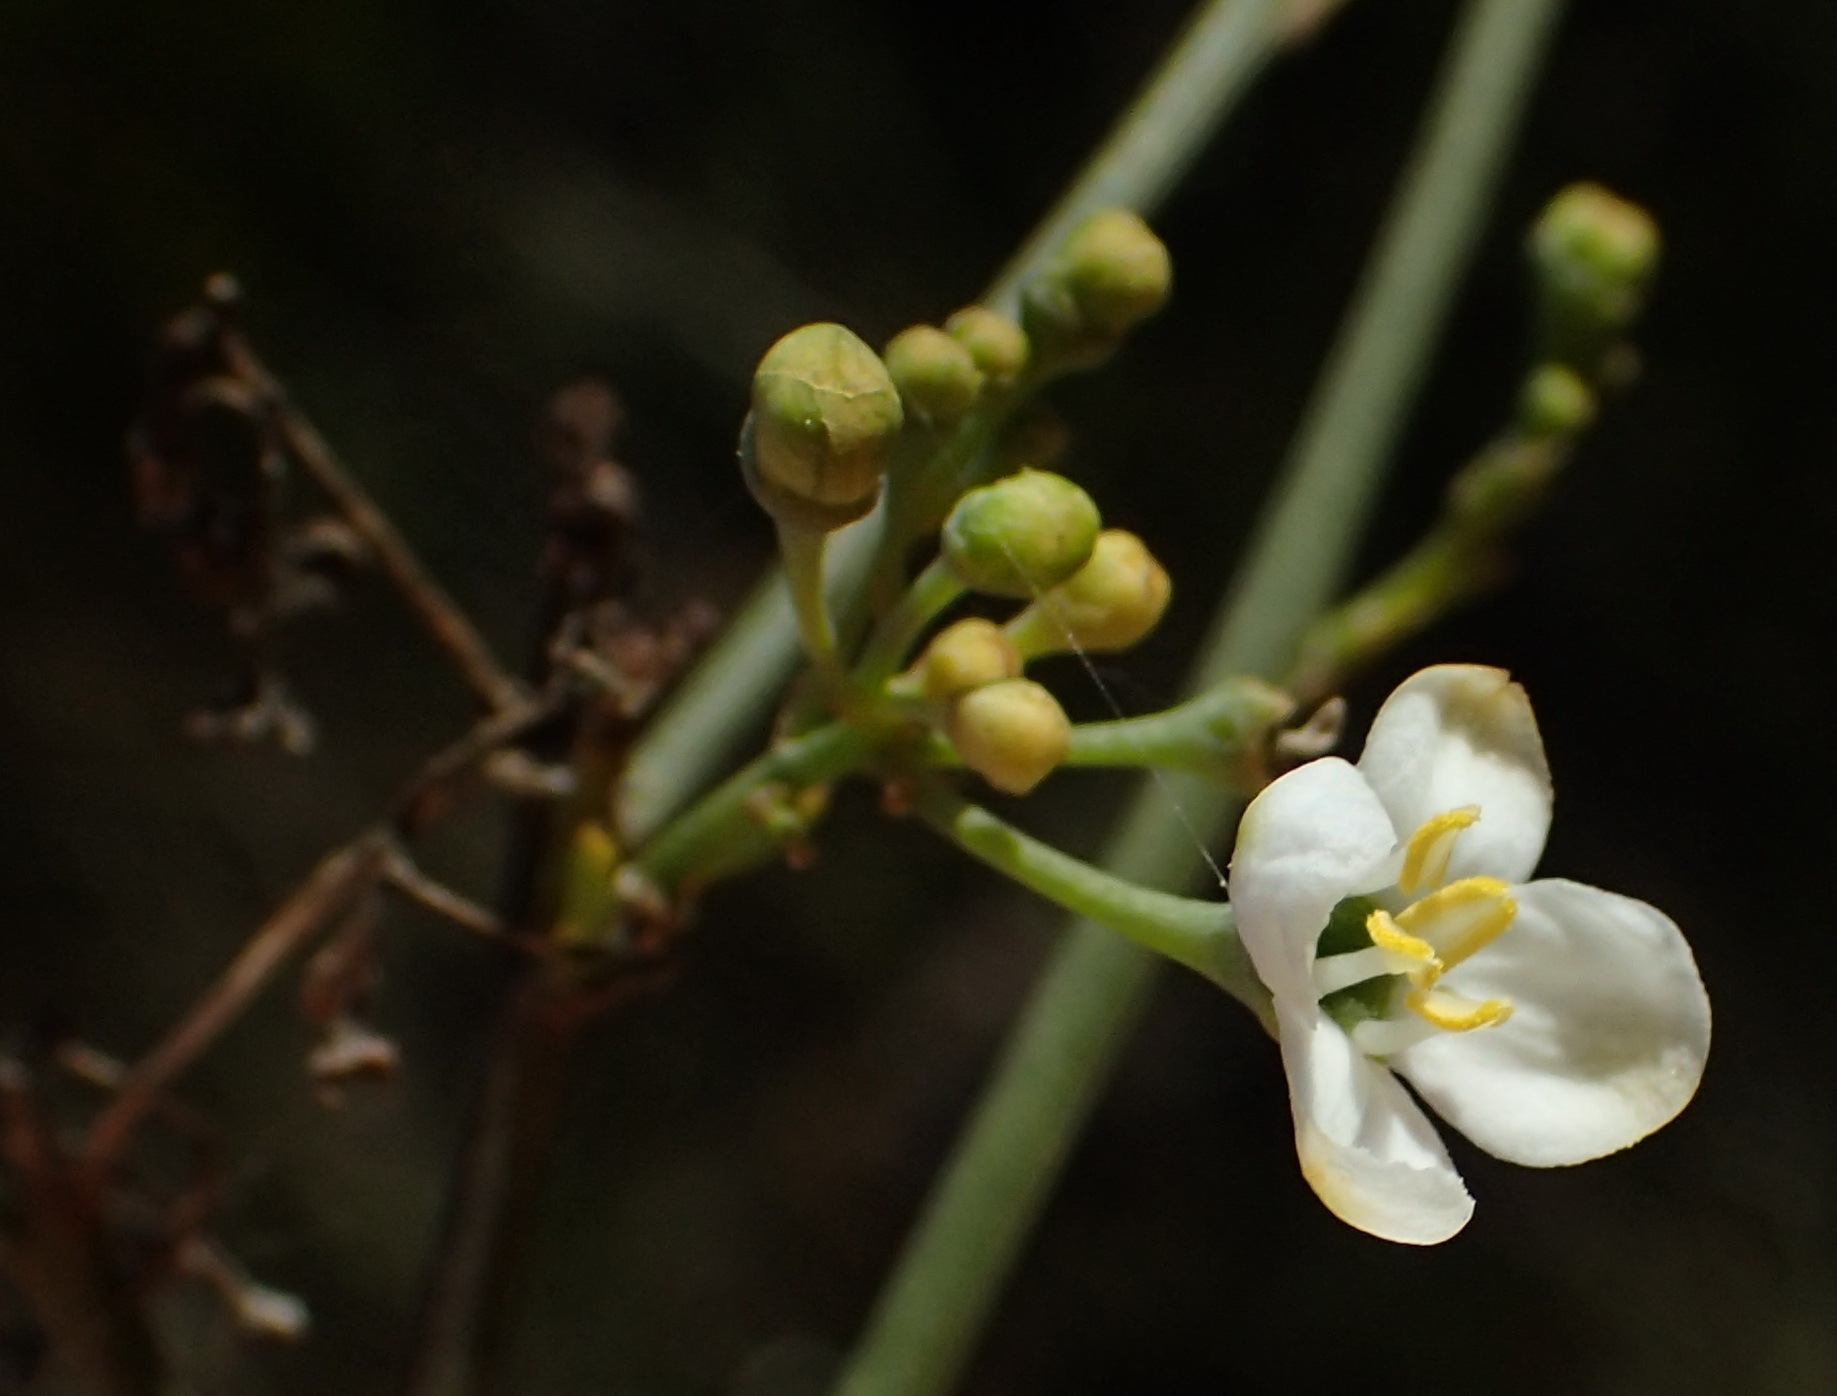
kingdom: Plantae
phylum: Tracheophyta
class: Magnoliopsida
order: Solanales
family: Montiniaceae
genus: Montinia
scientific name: Montinia caryophyllacea
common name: Wild clove-bush
